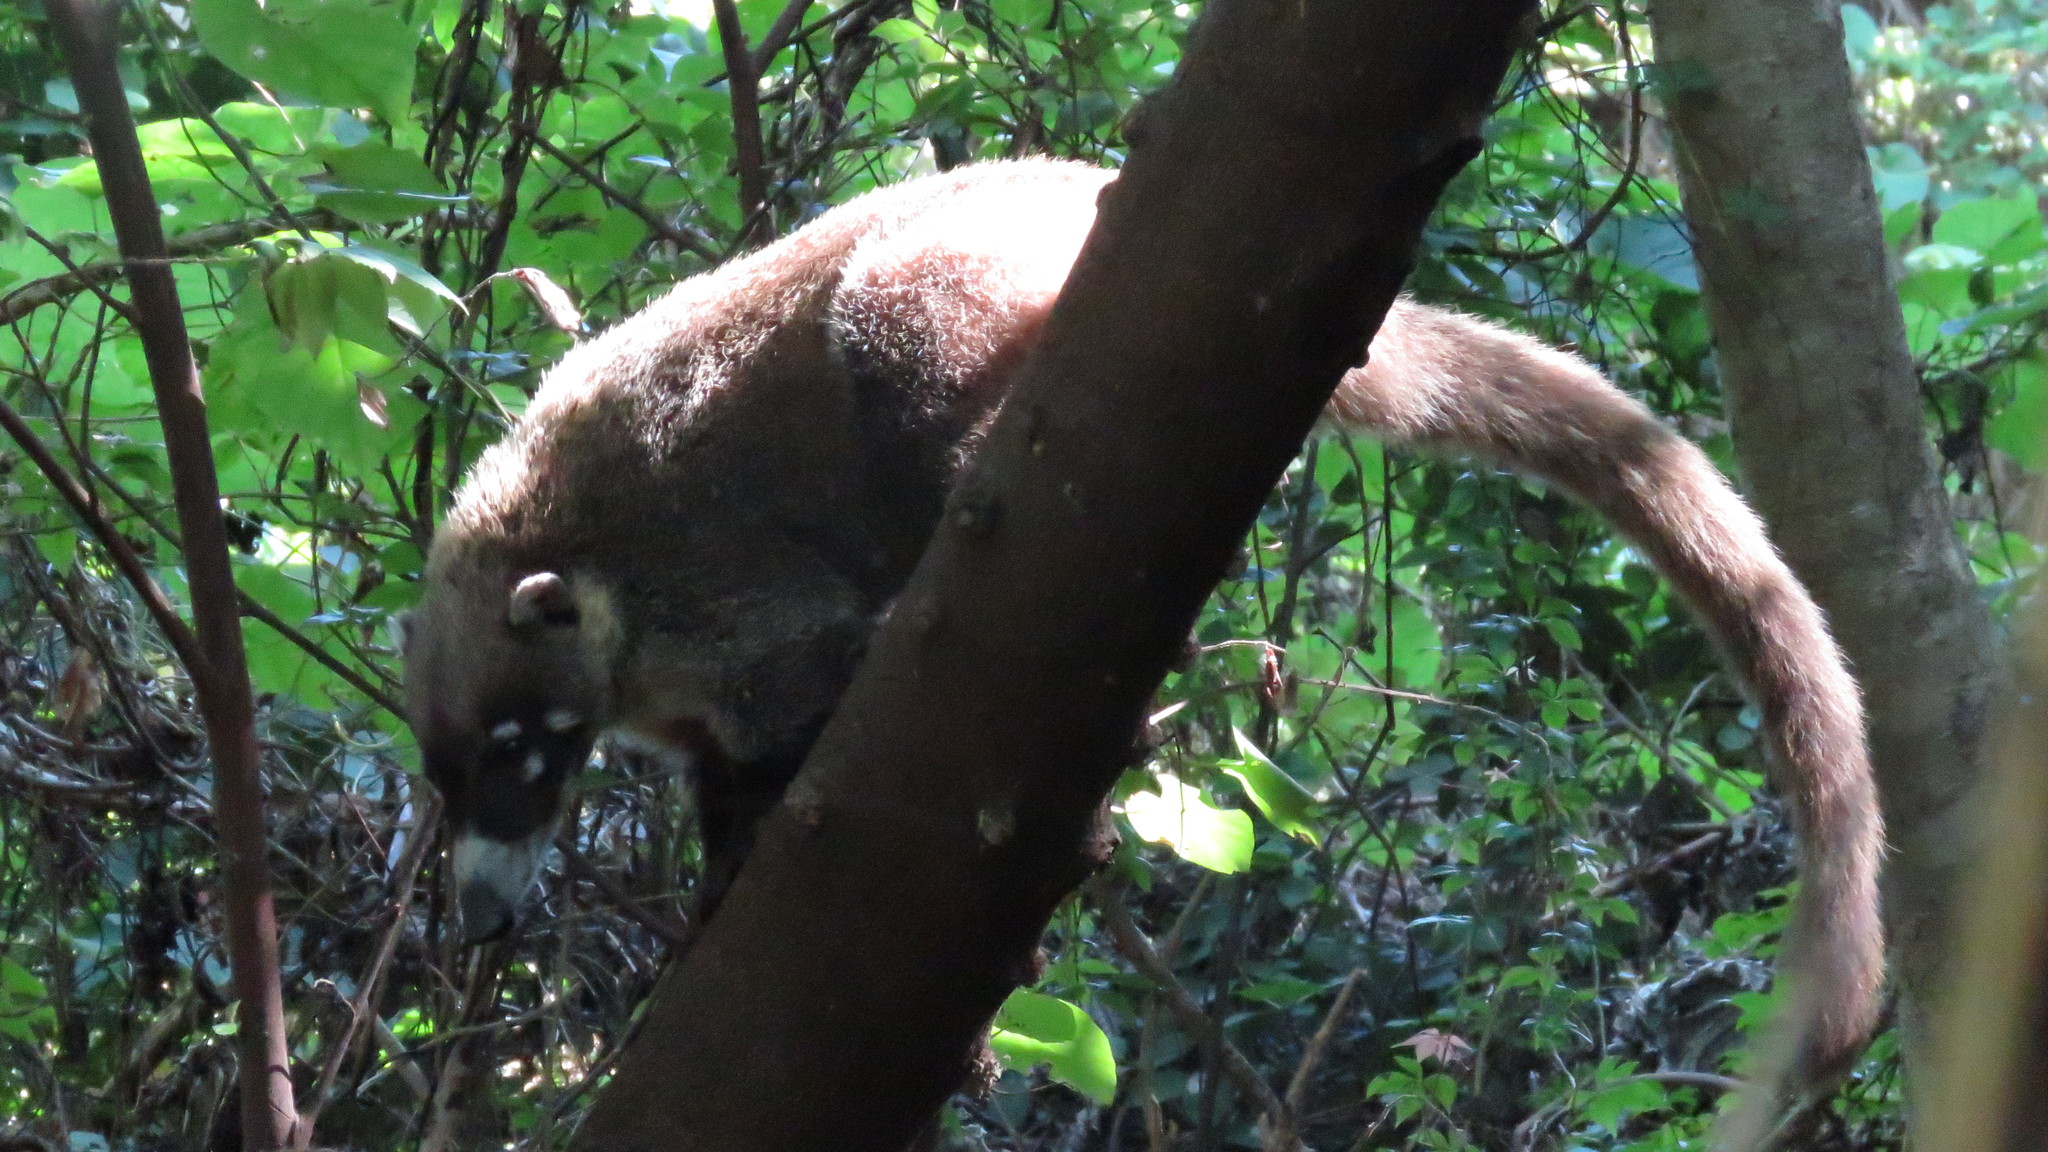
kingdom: Animalia
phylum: Chordata
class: Mammalia
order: Carnivora
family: Procyonidae
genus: Nasua
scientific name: Nasua narica
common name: White-nosed coati
